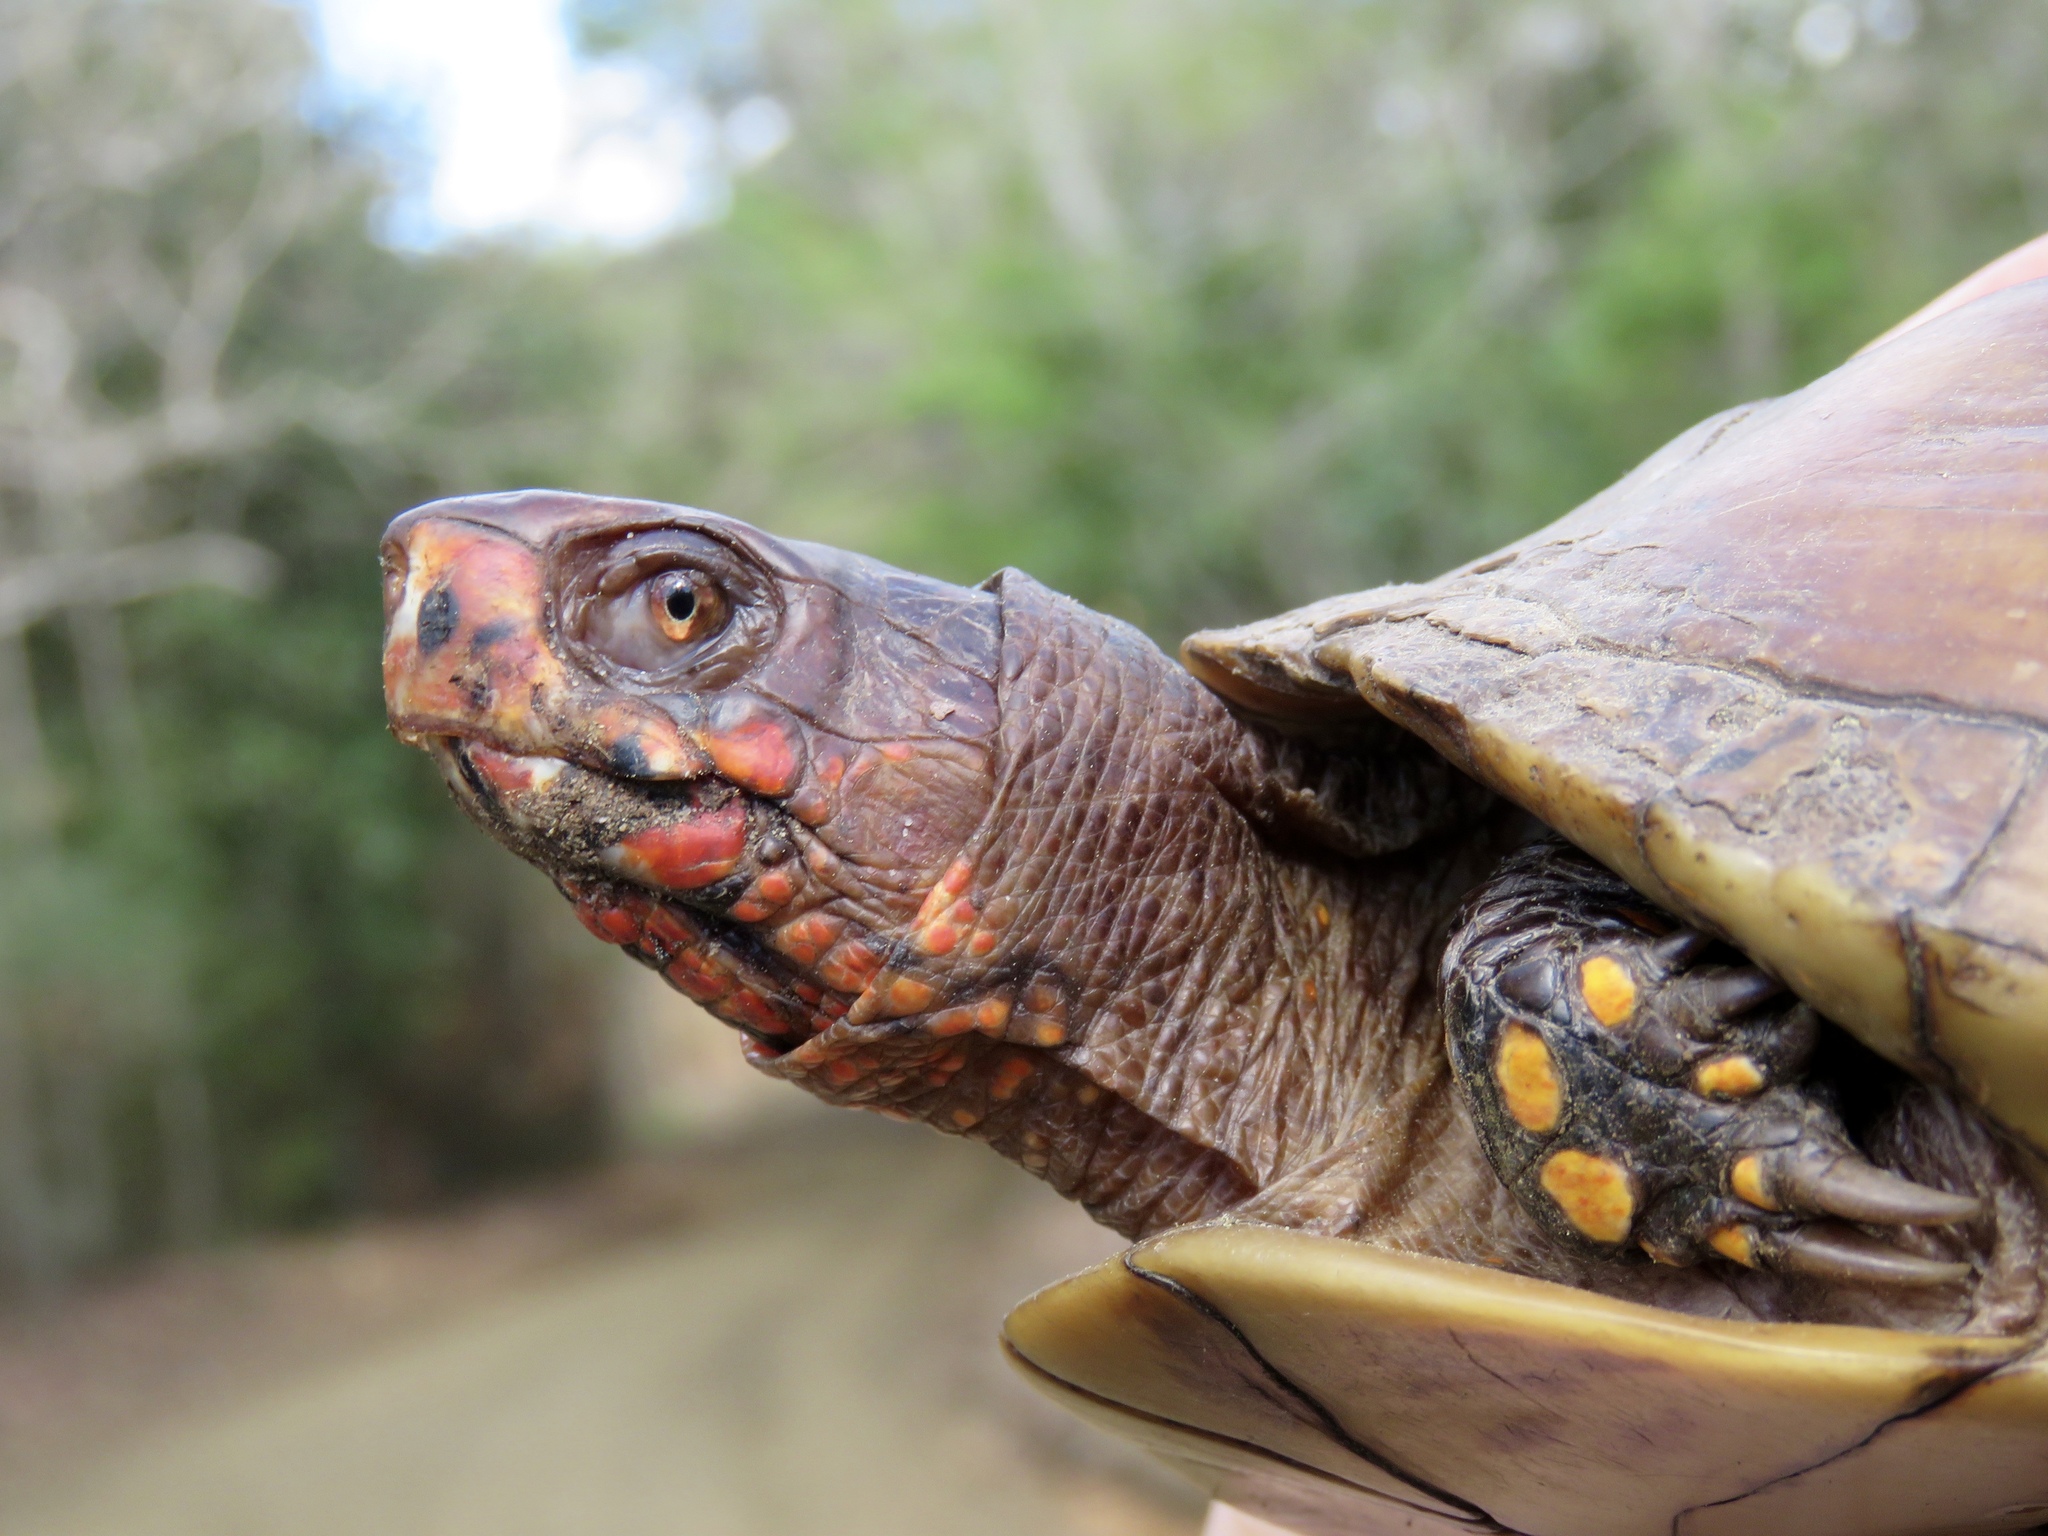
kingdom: Animalia
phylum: Chordata
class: Testudines
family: Emydidae
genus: Terrapene
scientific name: Terrapene carolina
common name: Common box turtle
